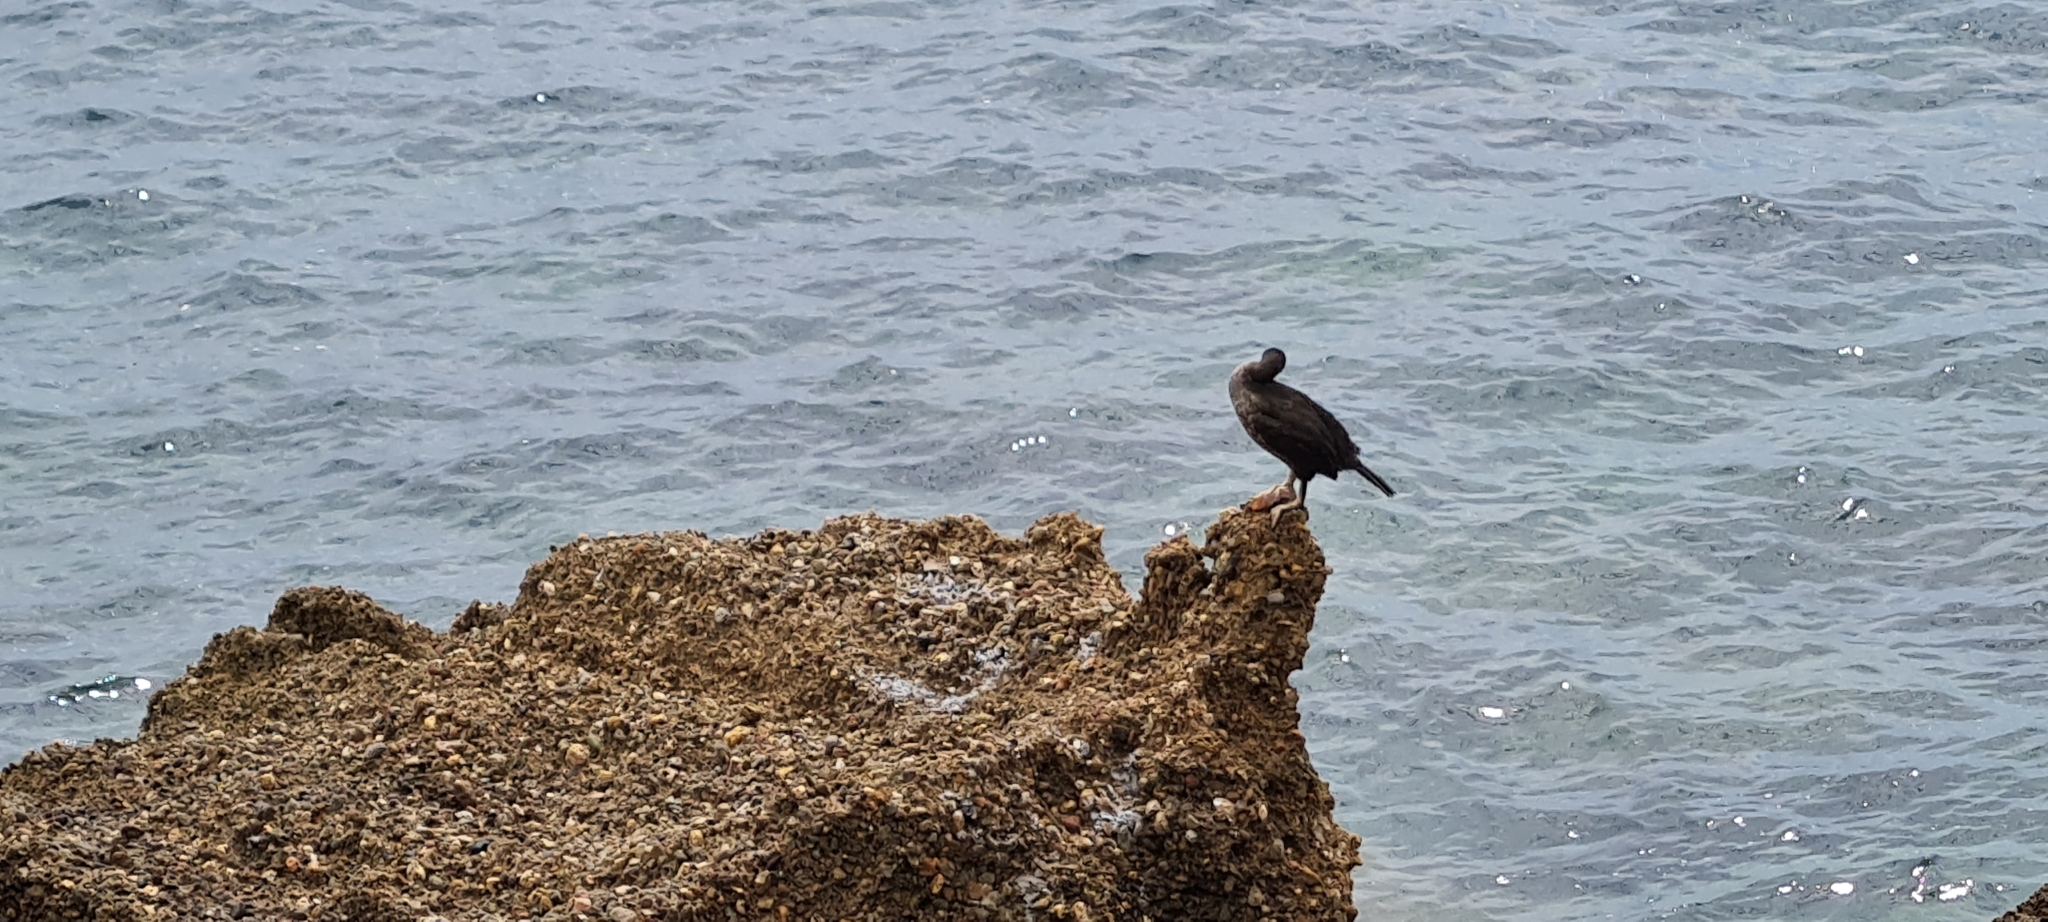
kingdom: Animalia
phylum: Chordata
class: Aves
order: Suliformes
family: Phalacrocoracidae
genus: Phalacrocorax
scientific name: Phalacrocorax aristotelis
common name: European shag
